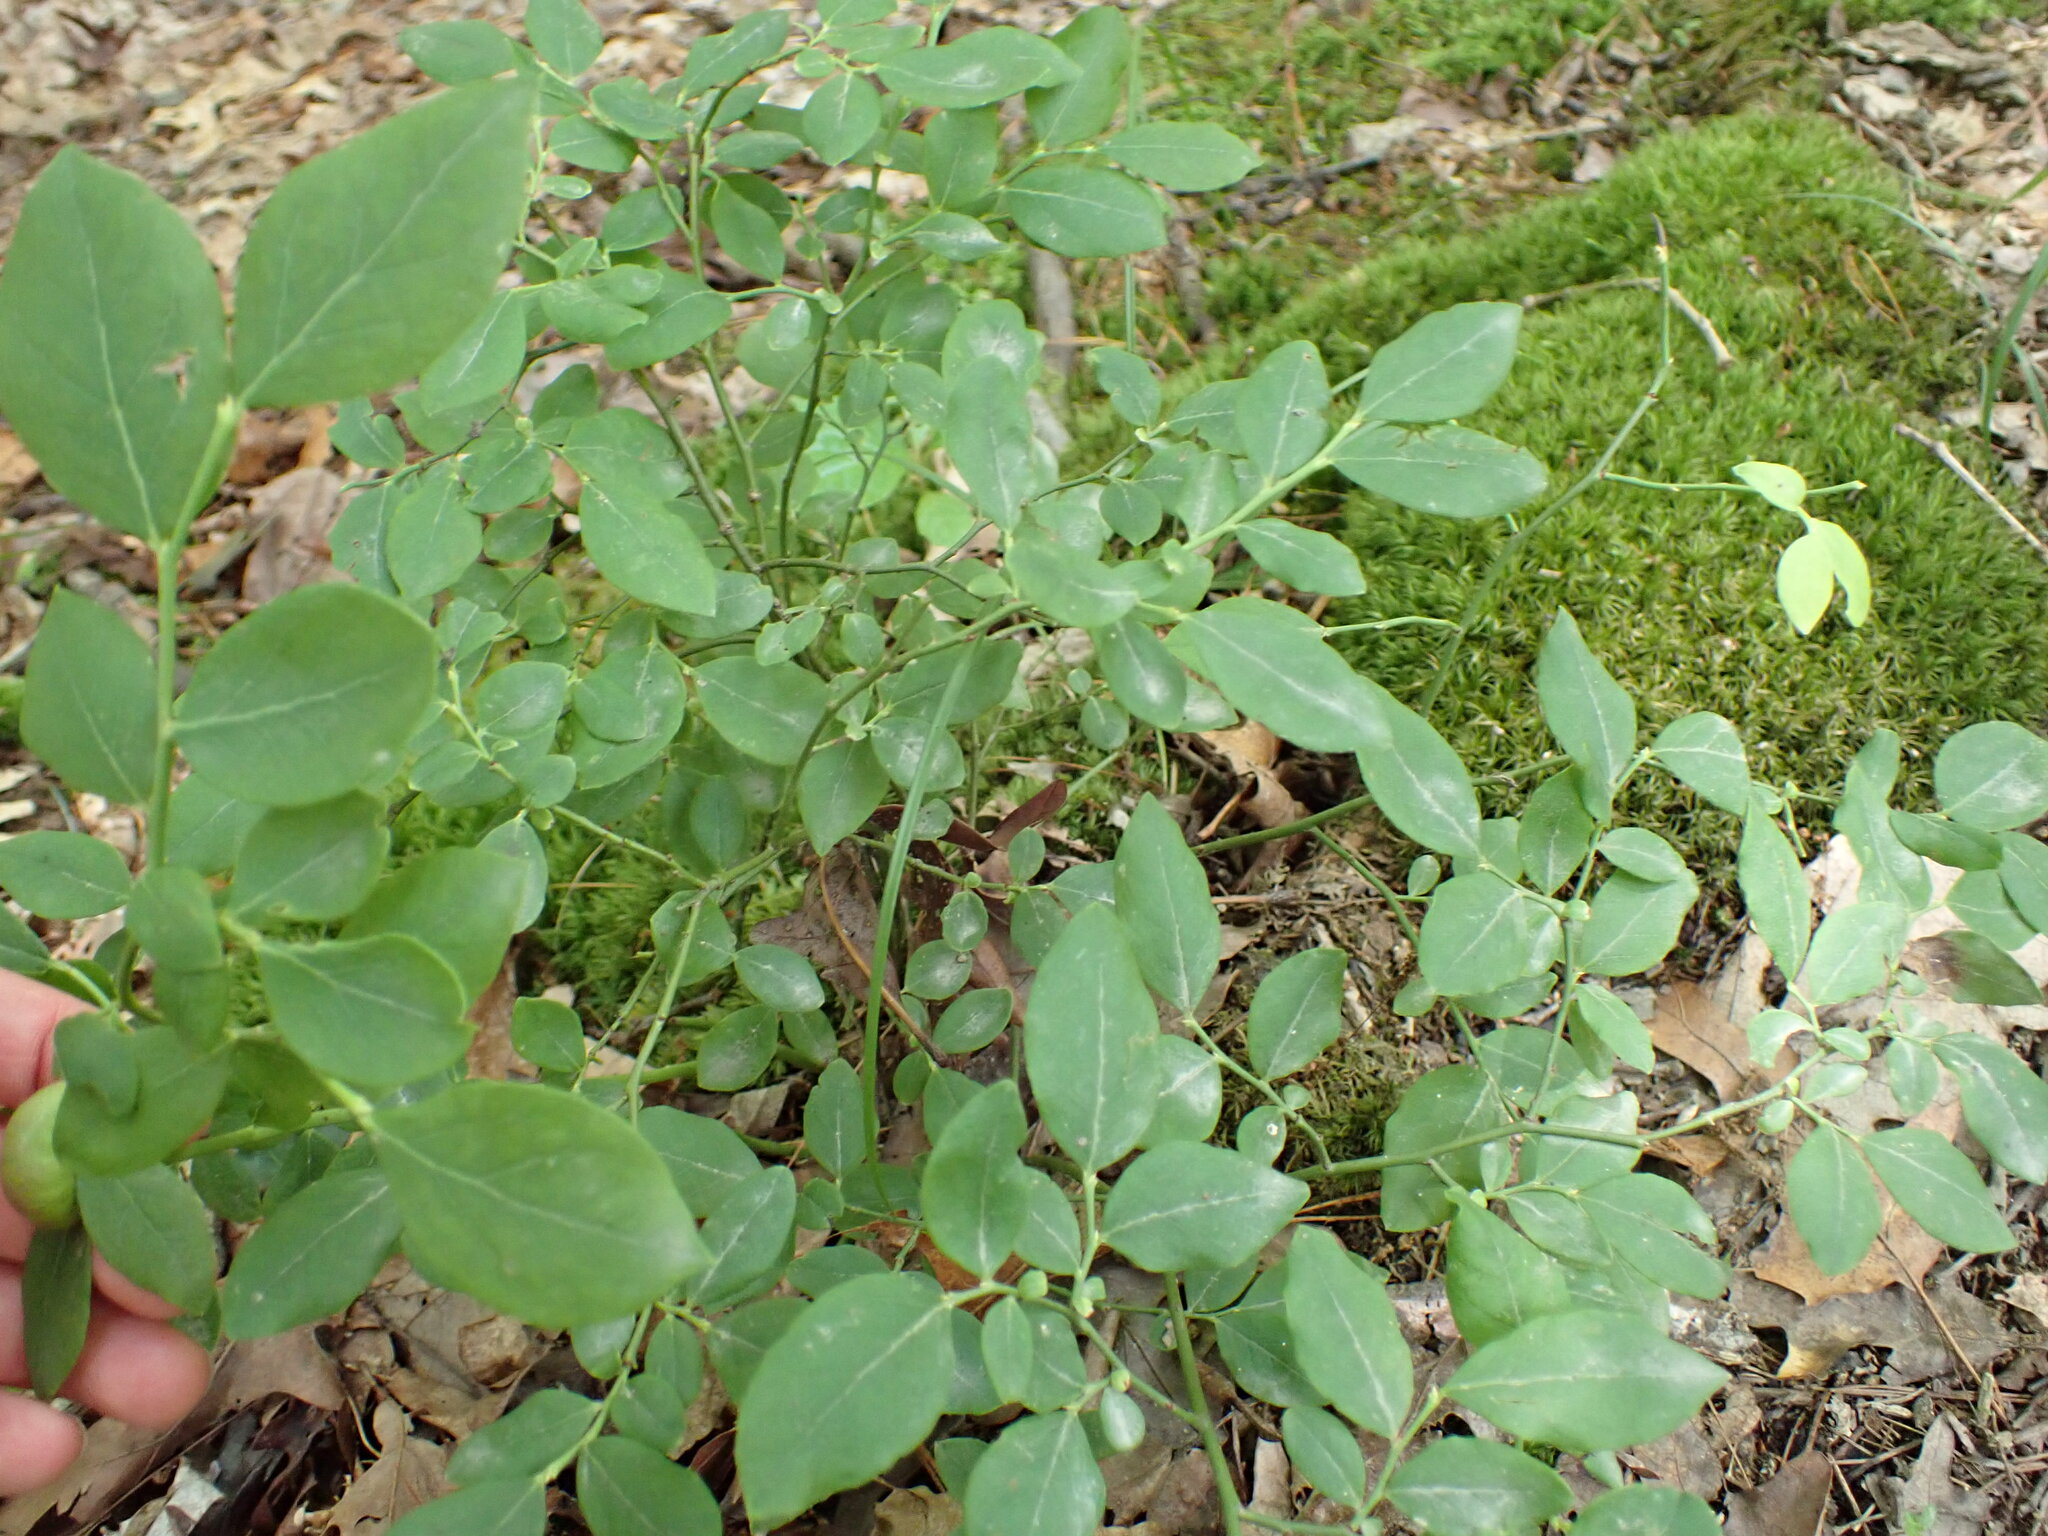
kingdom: Animalia
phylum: Arthropoda
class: Insecta
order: Hymenoptera
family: Pteromalidae
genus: Hemadas
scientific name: Hemadas nubilipennis
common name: Blueberry stem gall wasp
